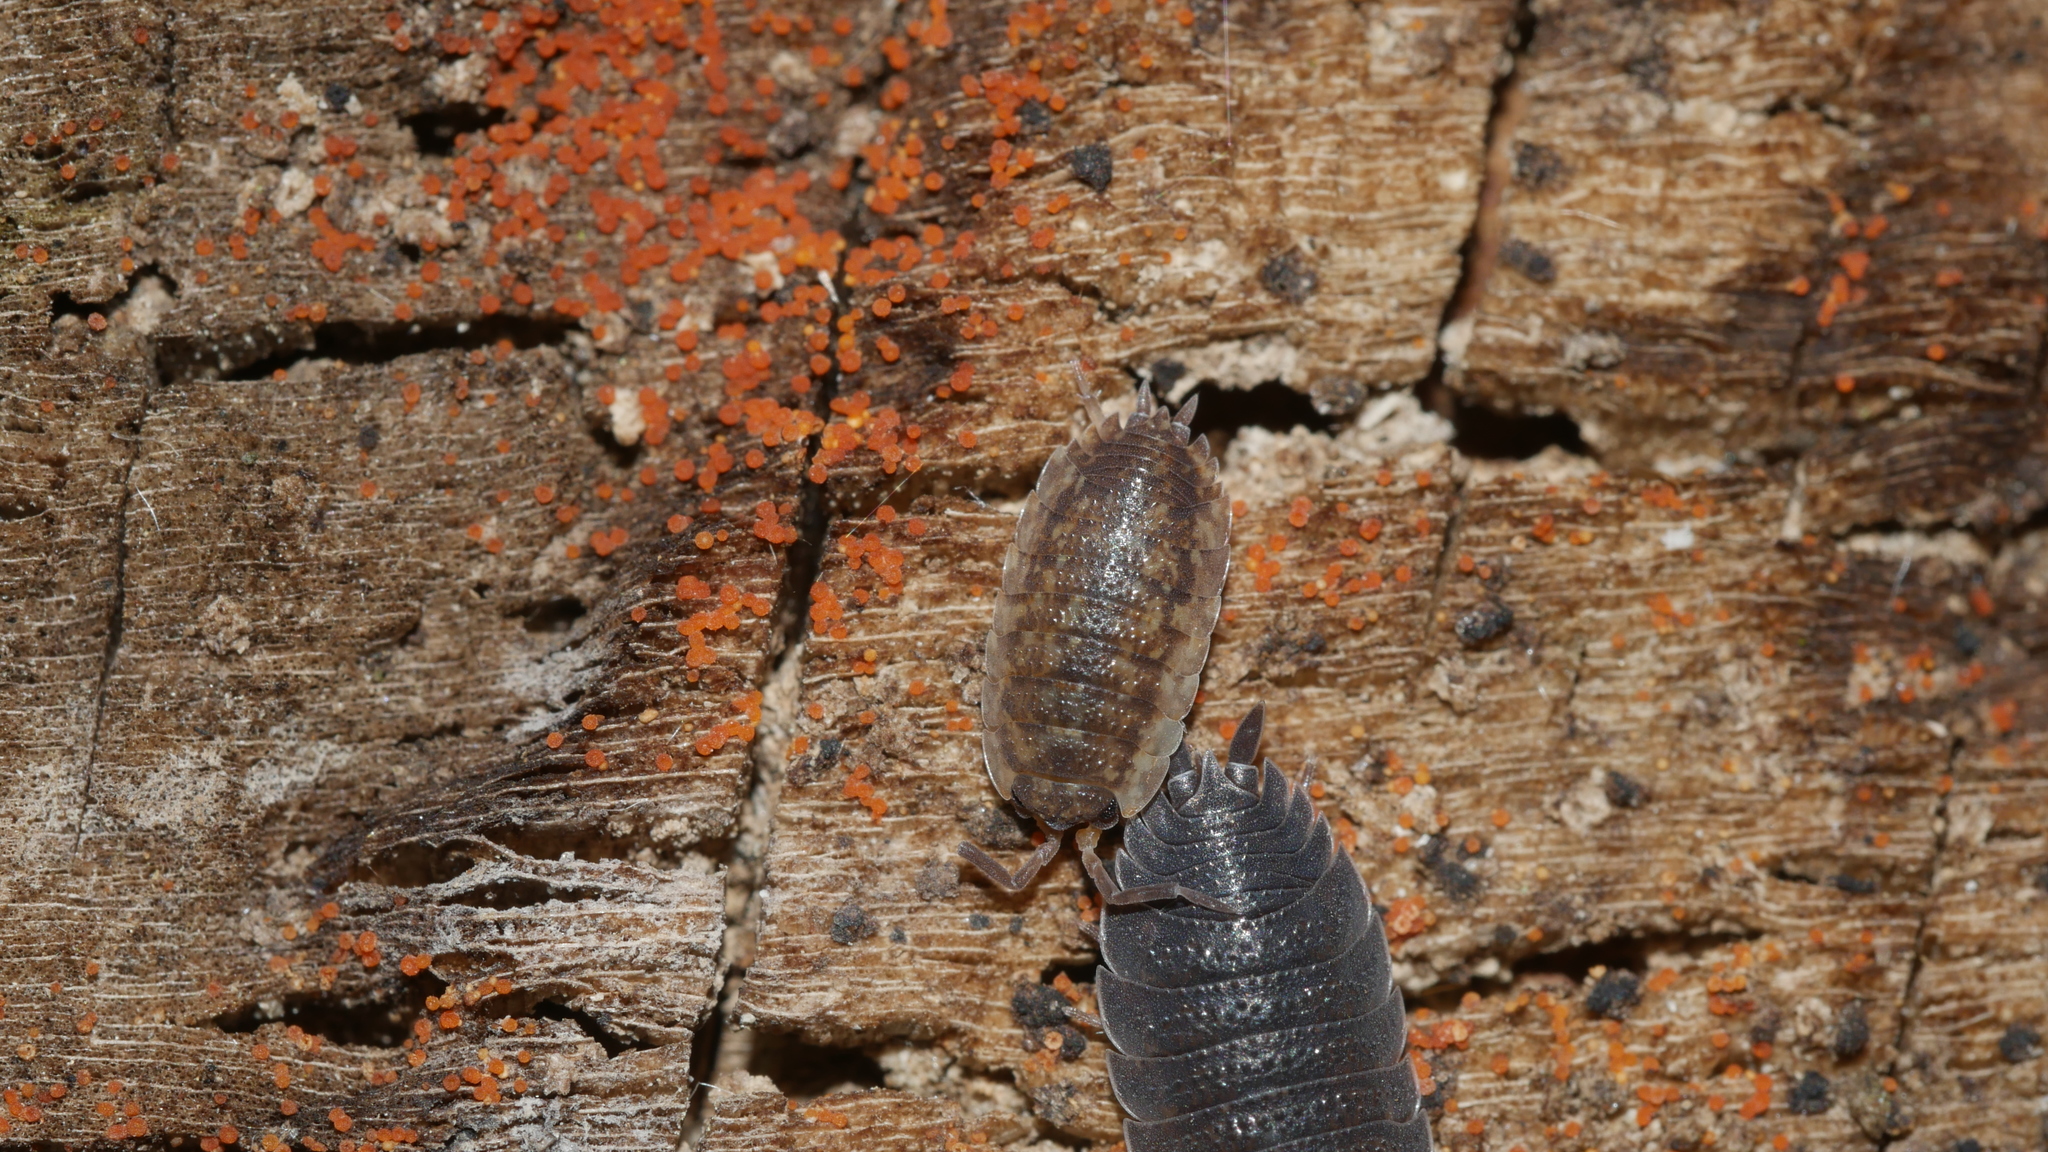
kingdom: Animalia
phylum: Arthropoda
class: Malacostraca
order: Isopoda
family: Porcellionidae
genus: Porcellio
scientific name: Porcellio scaber
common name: Common rough woodlouse
